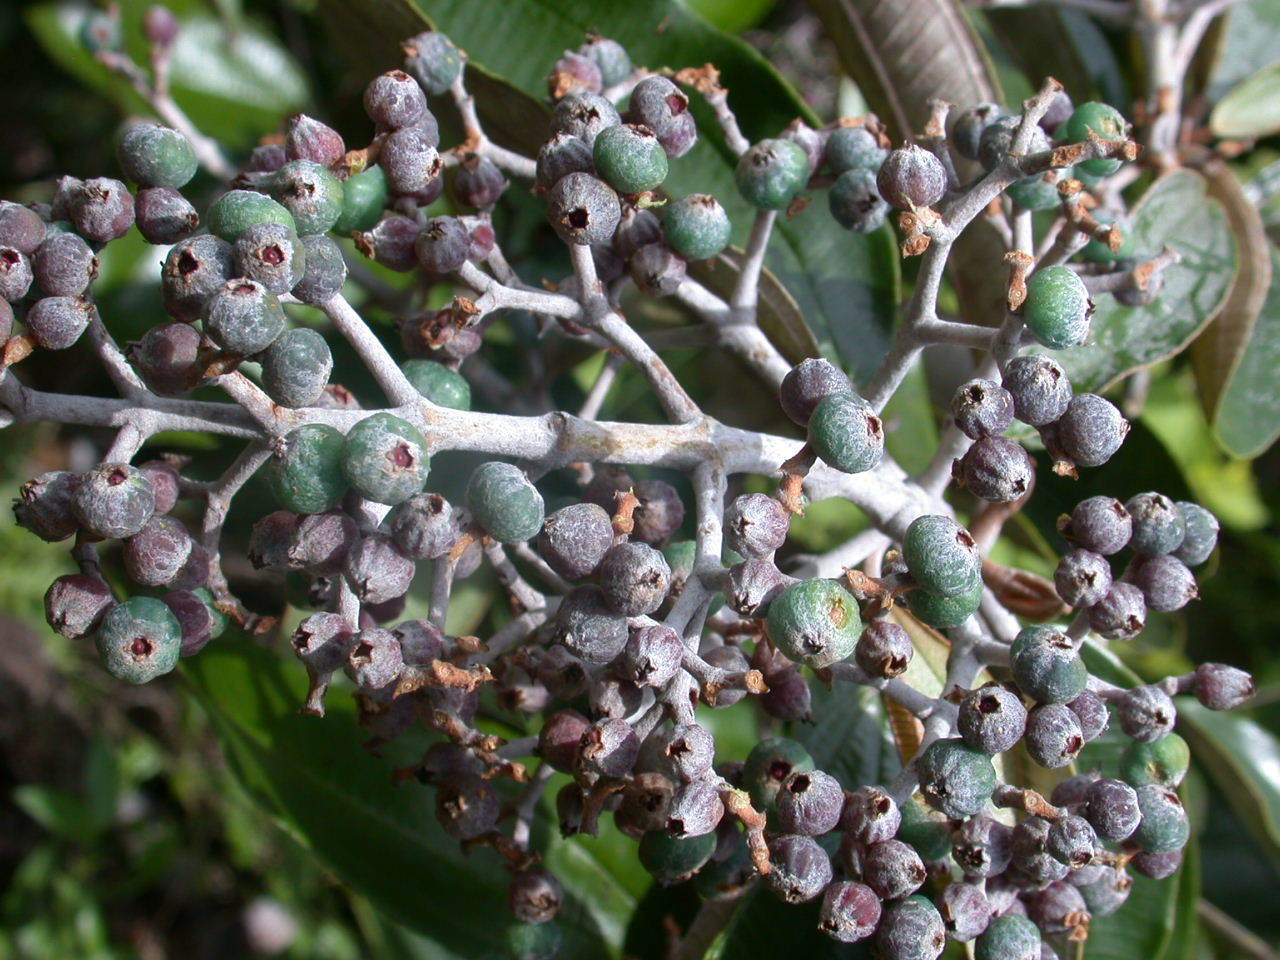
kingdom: Plantae
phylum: Tracheophyta
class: Magnoliopsida
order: Myrtales
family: Melastomataceae
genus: Miconia
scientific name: Miconia albicans
